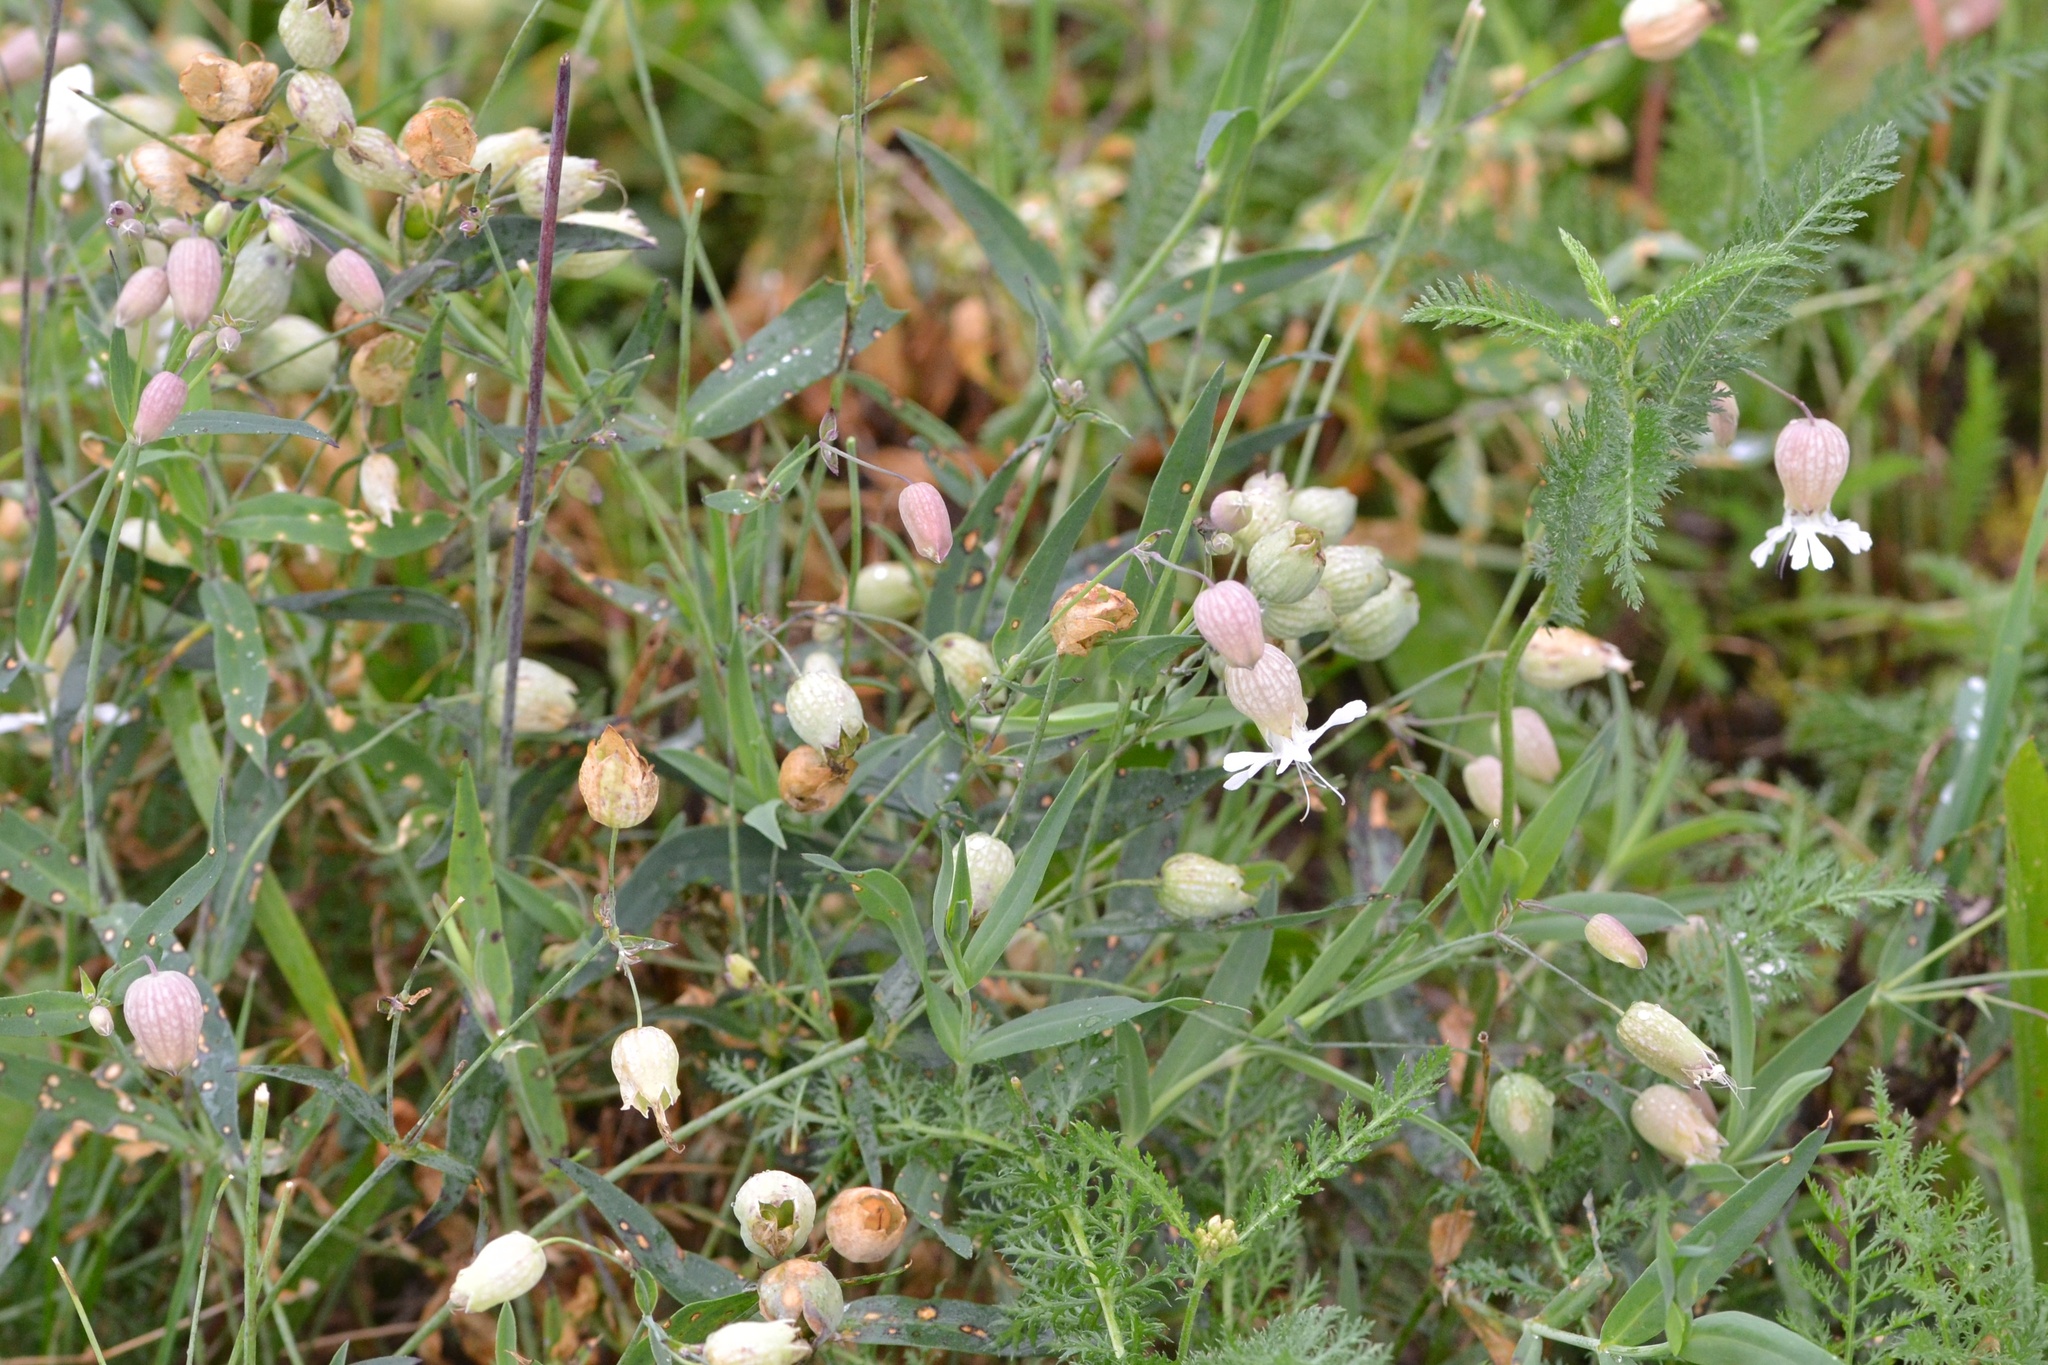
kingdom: Plantae
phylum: Tracheophyta
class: Magnoliopsida
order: Caryophyllales
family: Caryophyllaceae
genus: Silene
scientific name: Silene vulgaris
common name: Bladder campion
